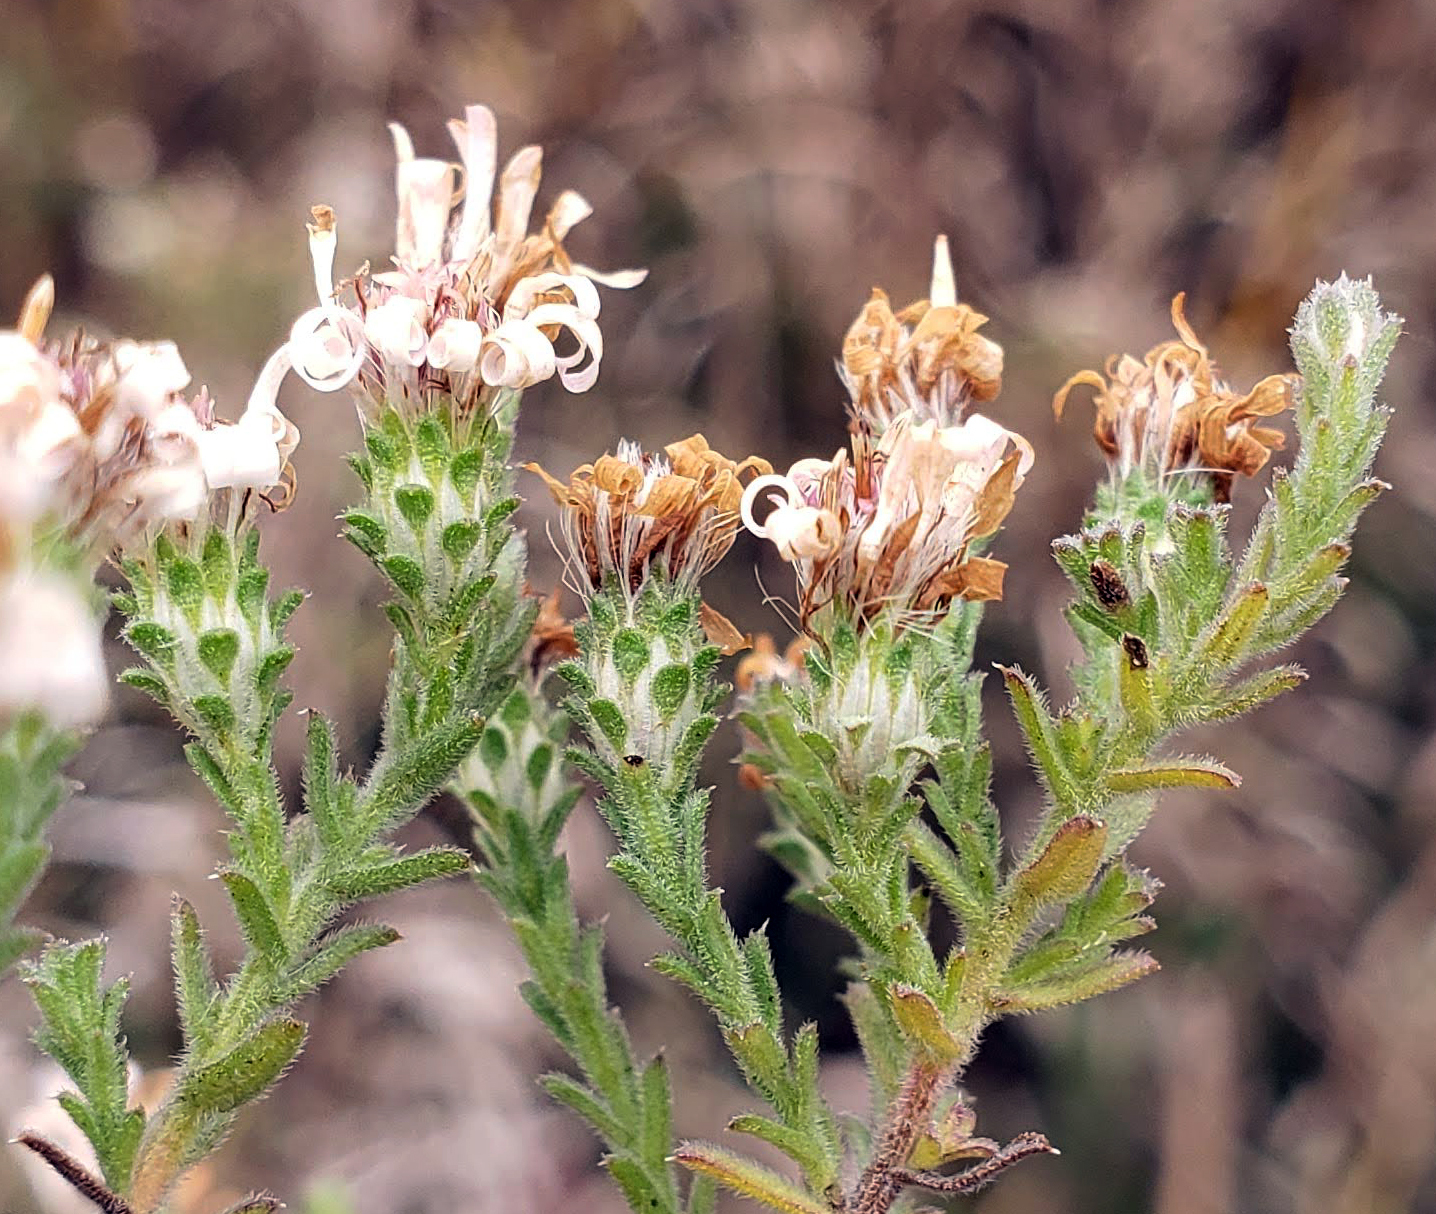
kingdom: Plantae
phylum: Tracheophyta
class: Magnoliopsida
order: Asterales
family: Asteraceae
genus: Symphyotrichum
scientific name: Symphyotrichum ericoides
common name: Heath aster
